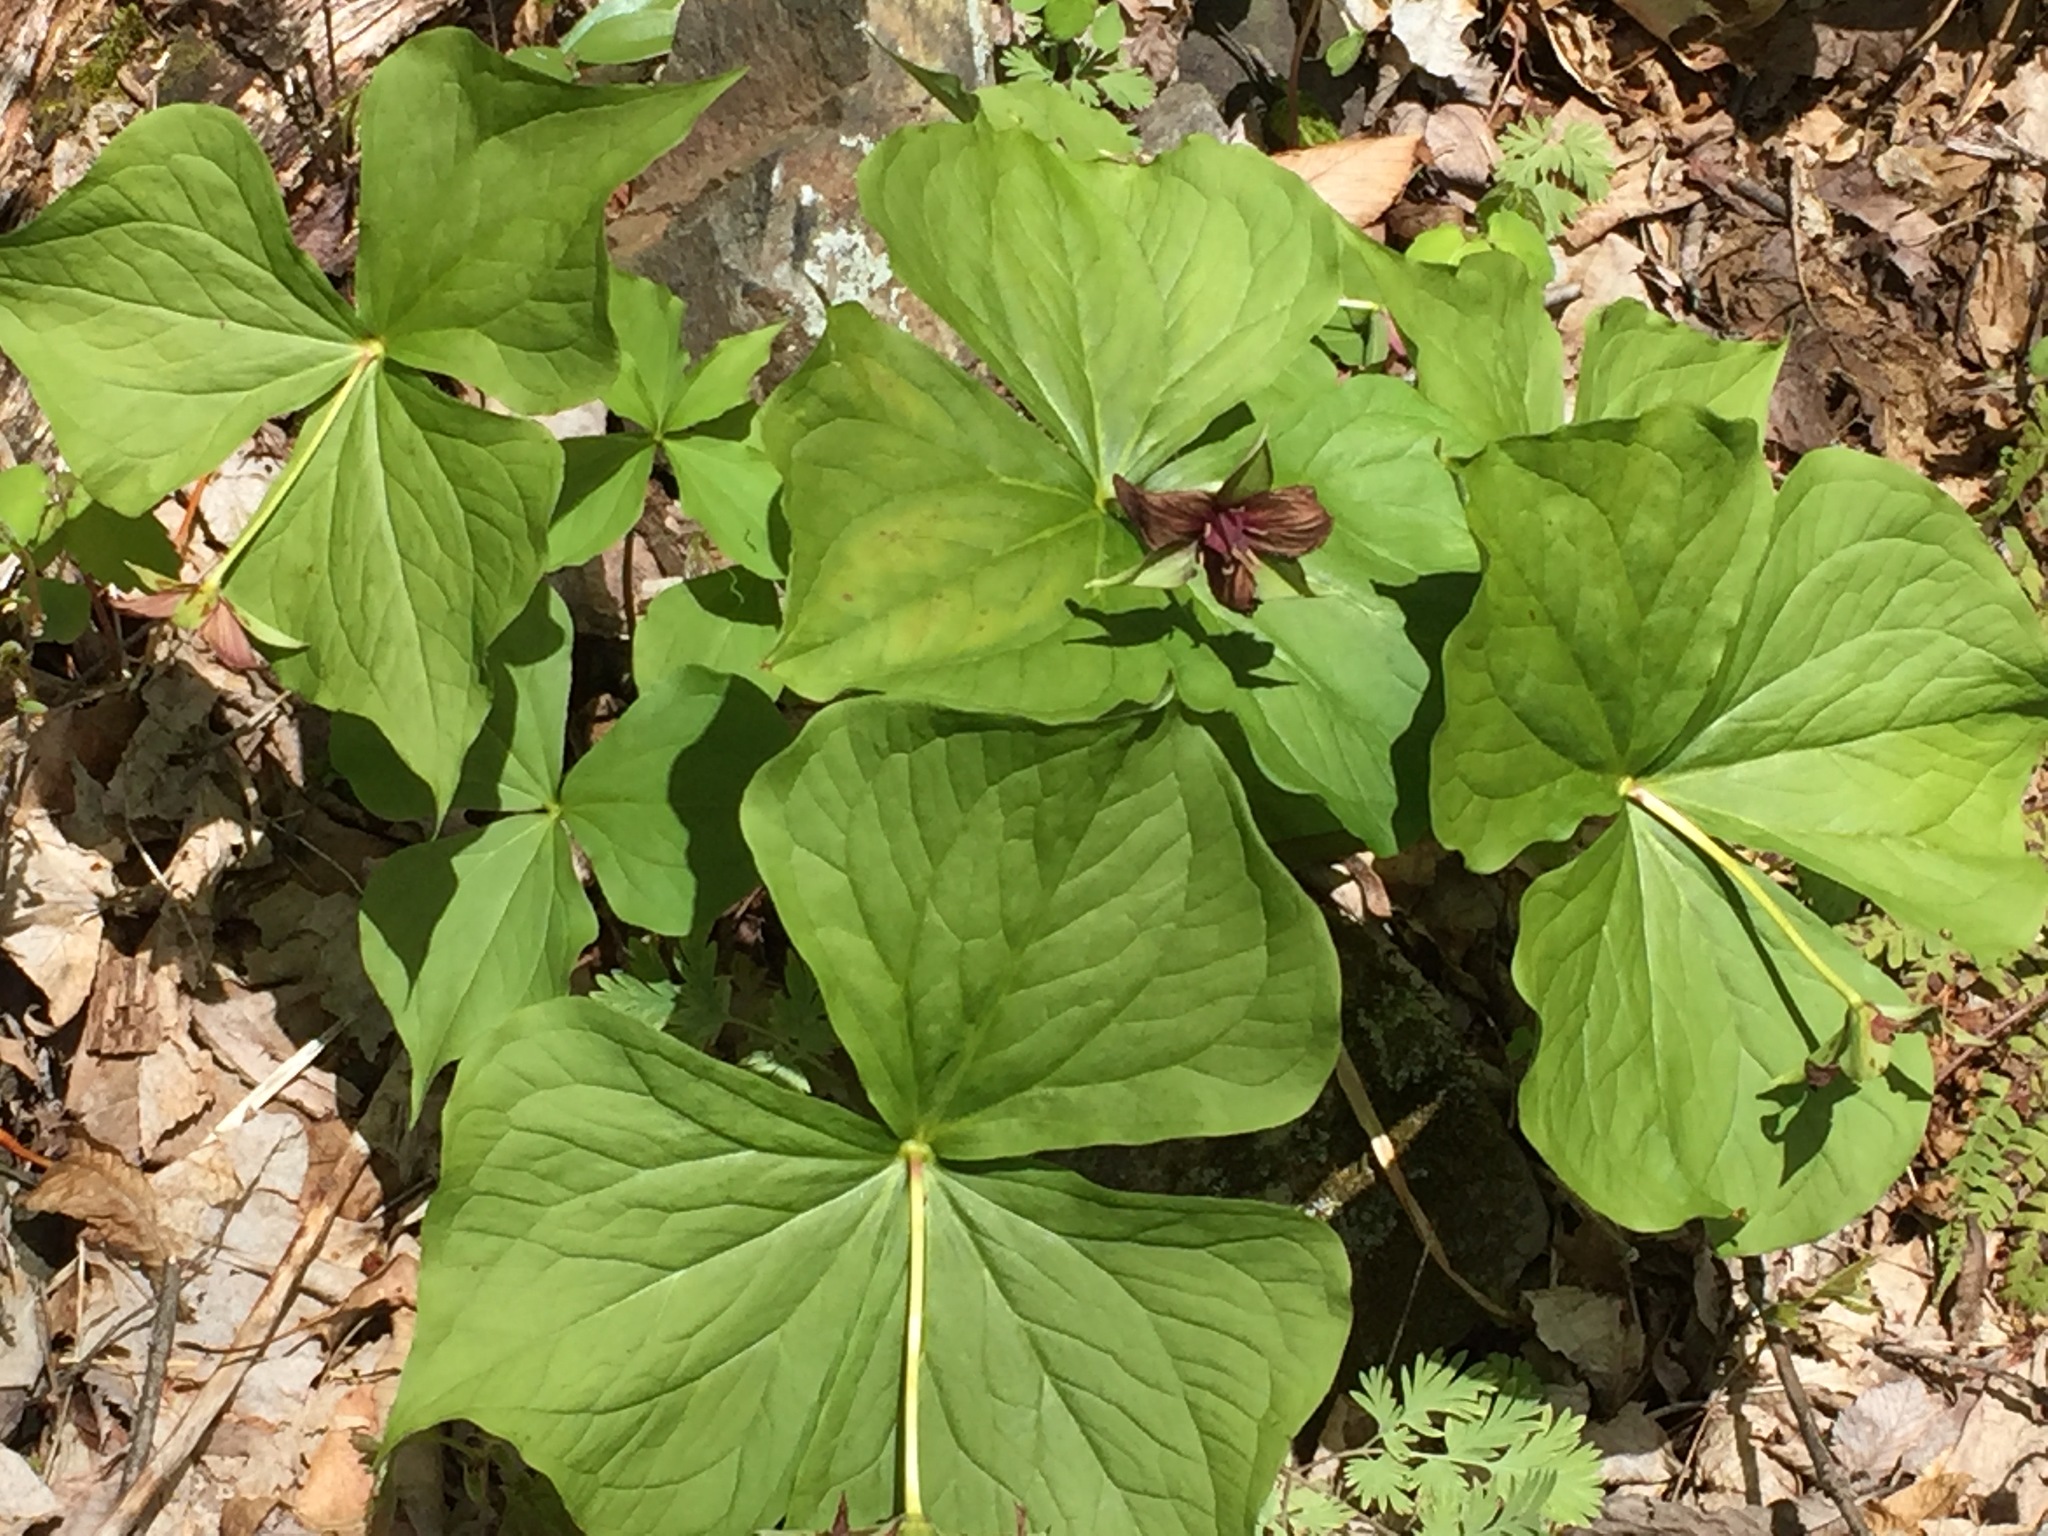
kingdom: Plantae
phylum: Tracheophyta
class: Liliopsida
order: Liliales
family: Melanthiaceae
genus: Trillium
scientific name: Trillium erectum
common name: Purple trillium
